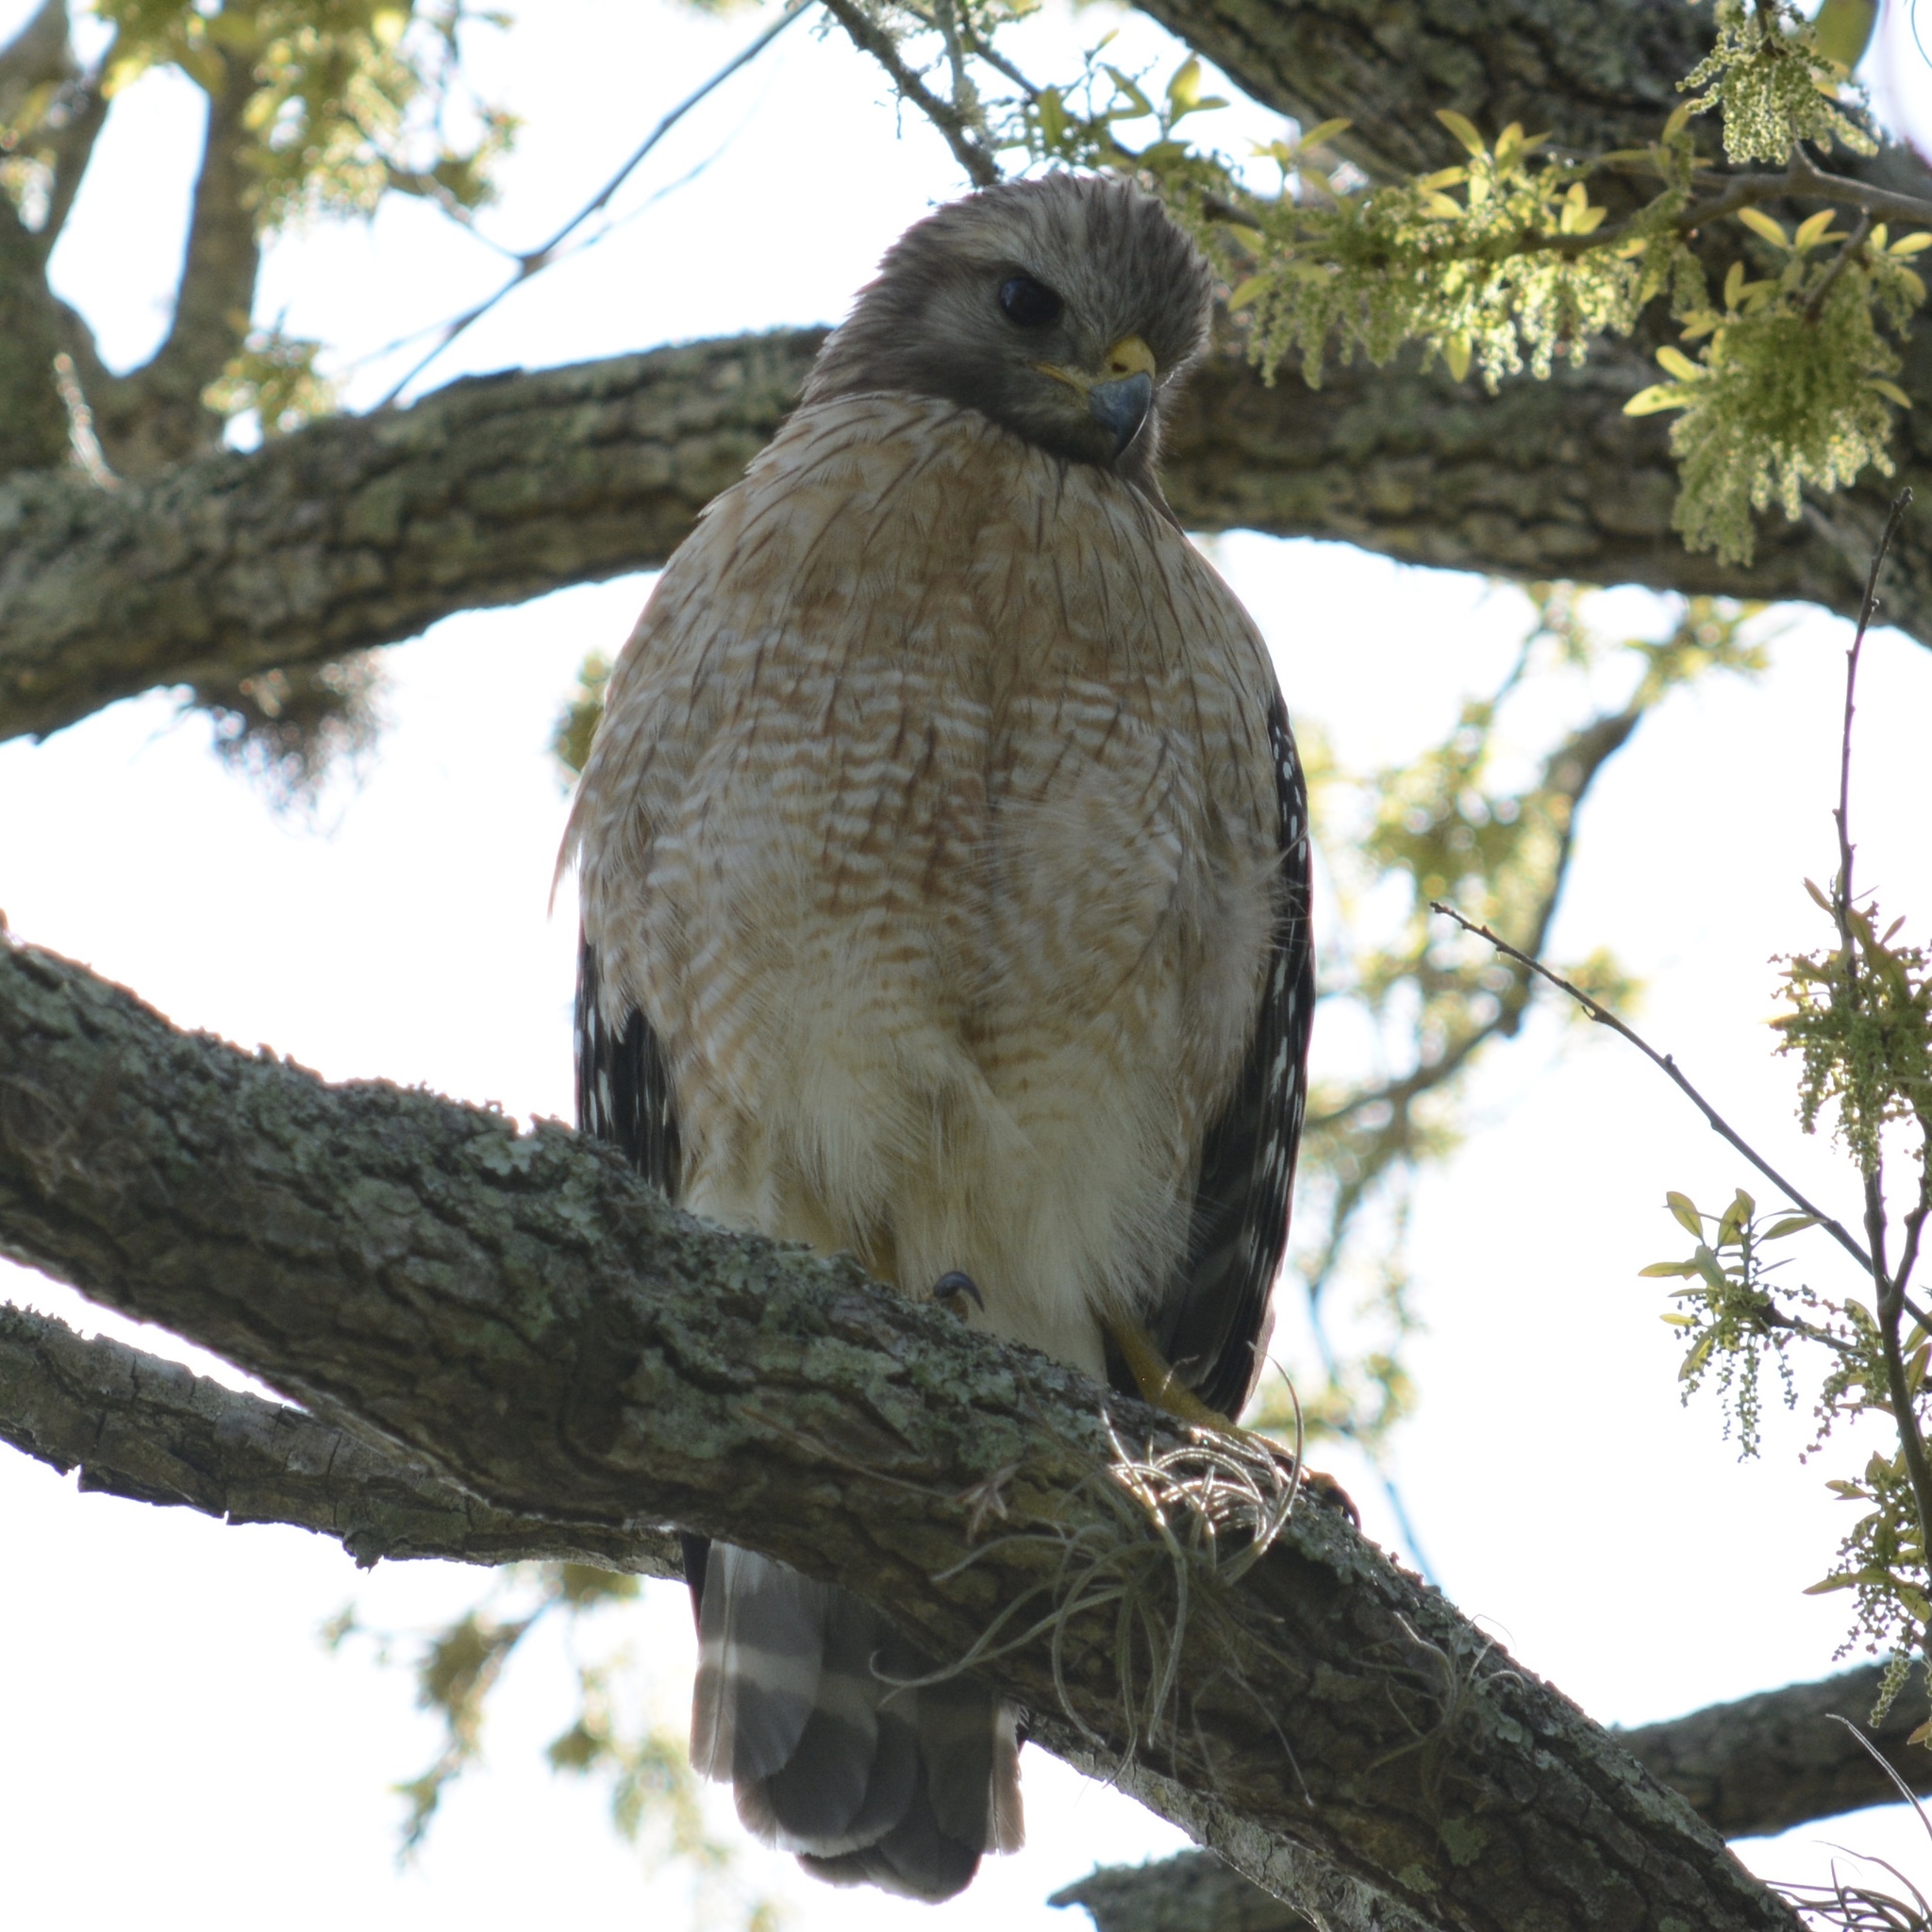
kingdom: Animalia
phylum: Chordata
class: Aves
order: Accipitriformes
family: Accipitridae
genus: Buteo
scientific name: Buteo lineatus
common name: Red-shouldered hawk
